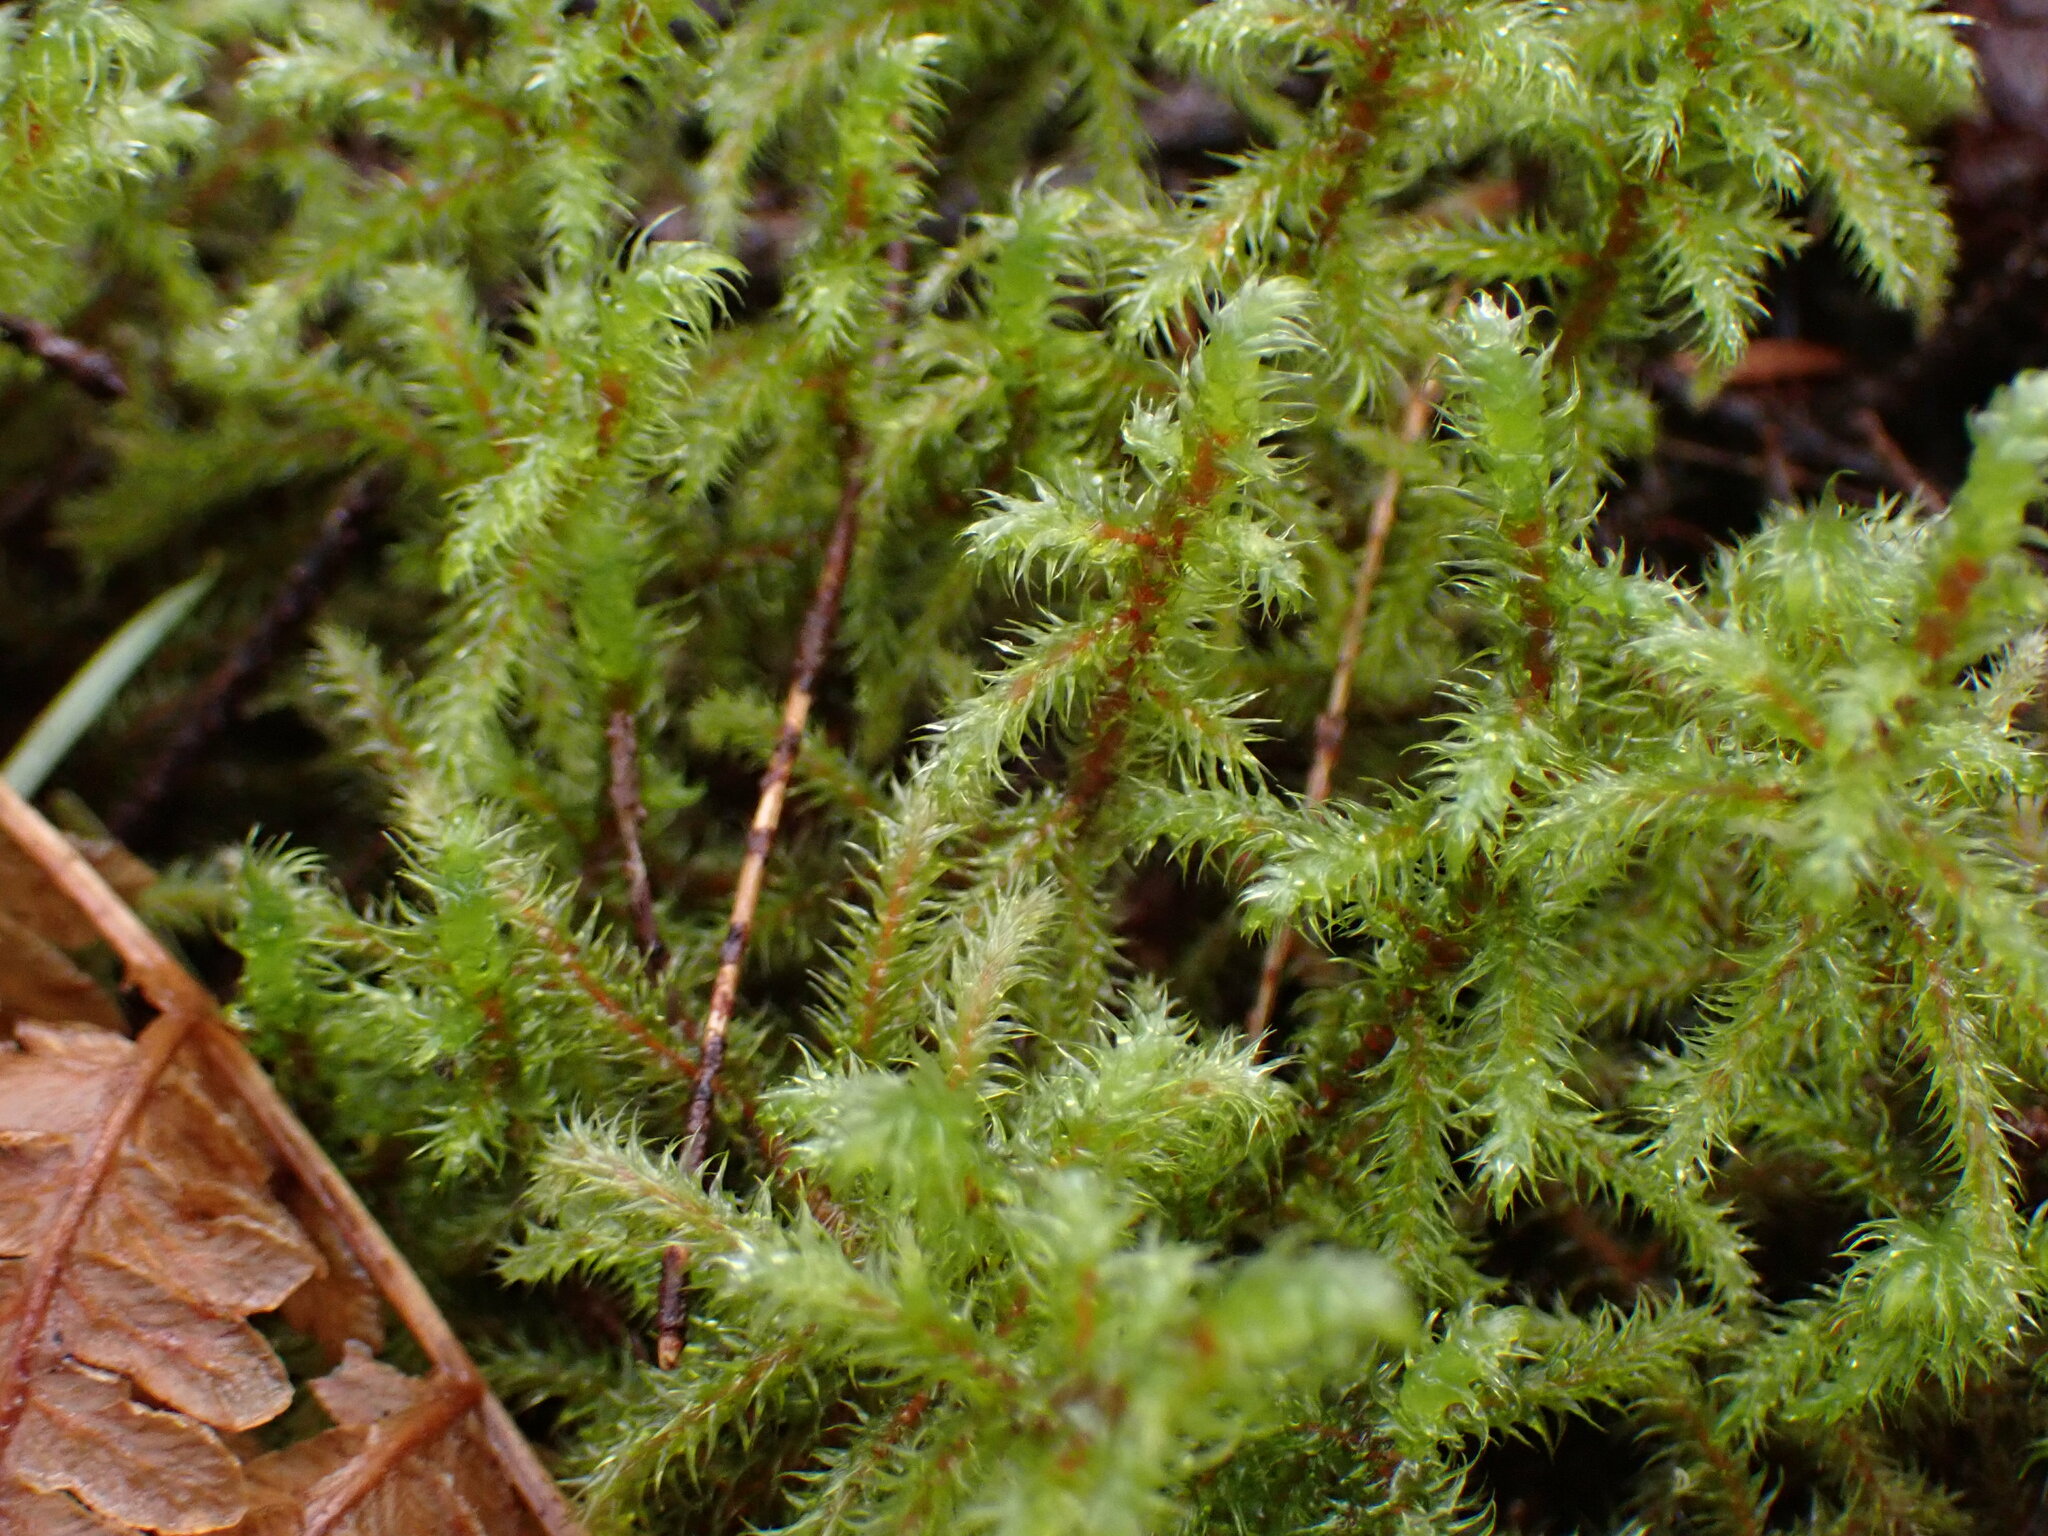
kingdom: Plantae
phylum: Bryophyta
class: Bryopsida
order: Hypnales
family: Hylocomiaceae
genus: Rhytidiadelphus
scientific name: Rhytidiadelphus loreus
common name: Lanky moss
